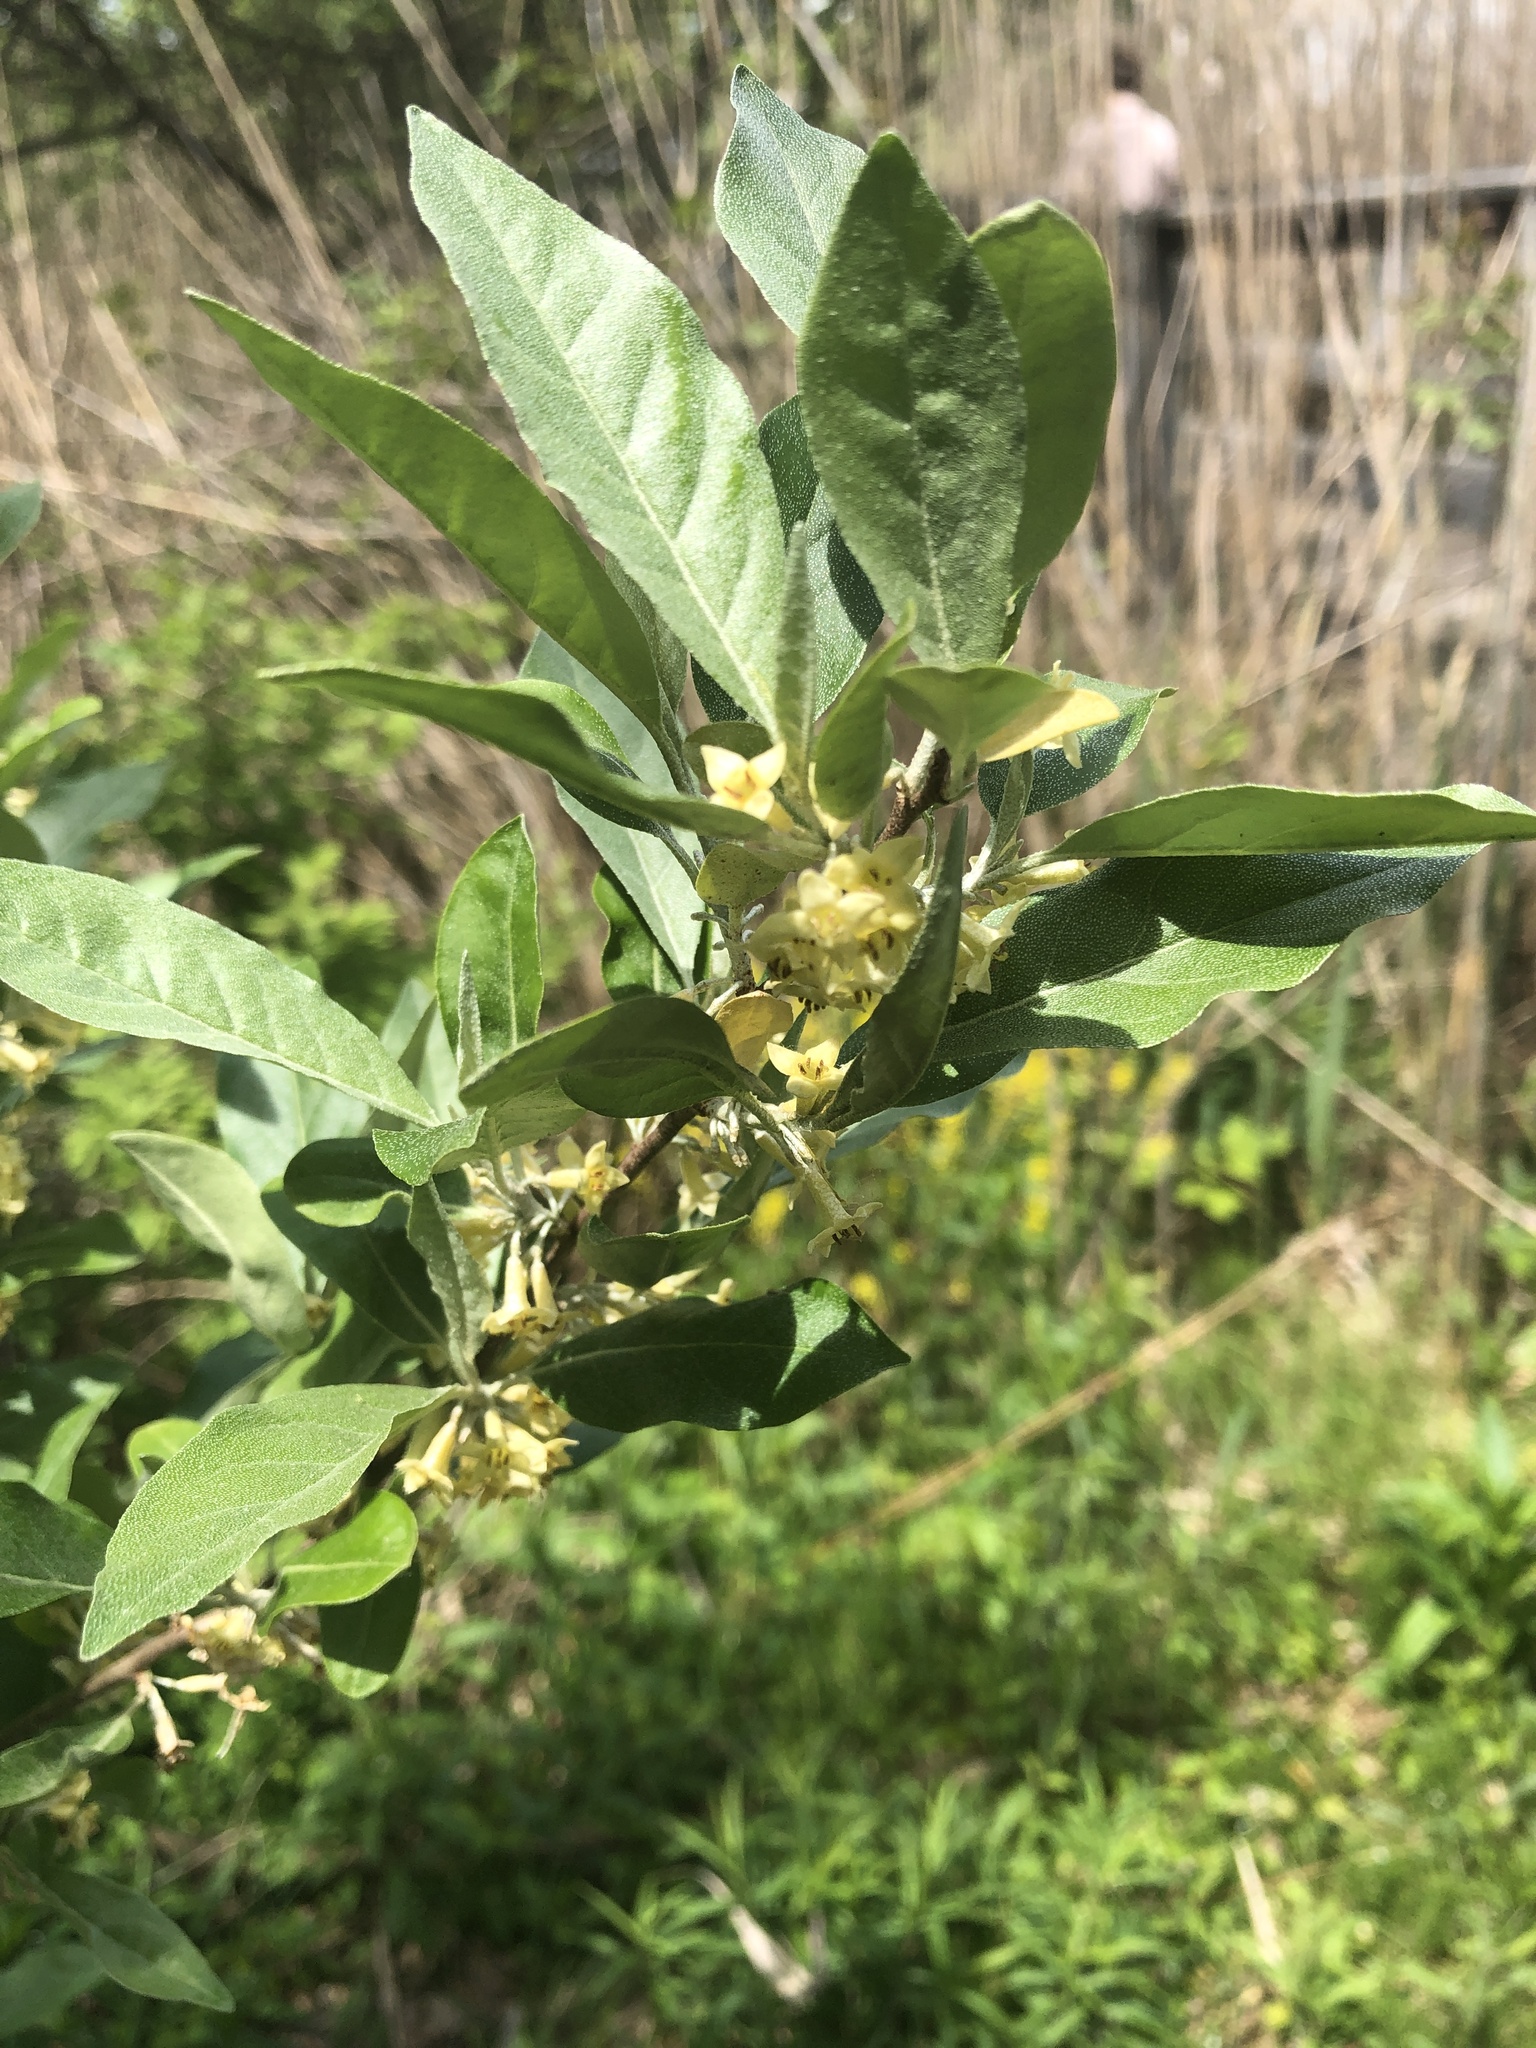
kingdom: Plantae
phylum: Tracheophyta
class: Magnoliopsida
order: Rosales
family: Elaeagnaceae
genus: Elaeagnus
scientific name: Elaeagnus umbellata
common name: Autumn olive
